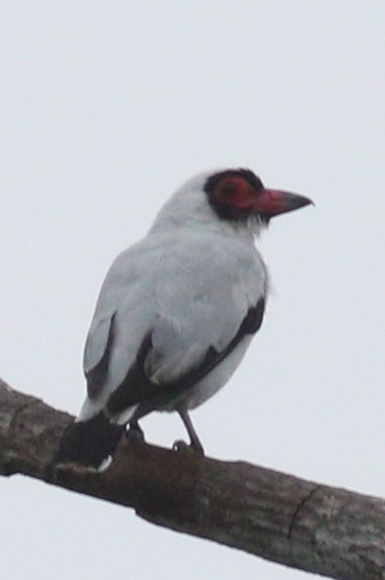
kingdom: Animalia
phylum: Chordata
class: Aves
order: Passeriformes
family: Cotingidae
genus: Tityra
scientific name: Tityra semifasciata
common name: Masked tityra
